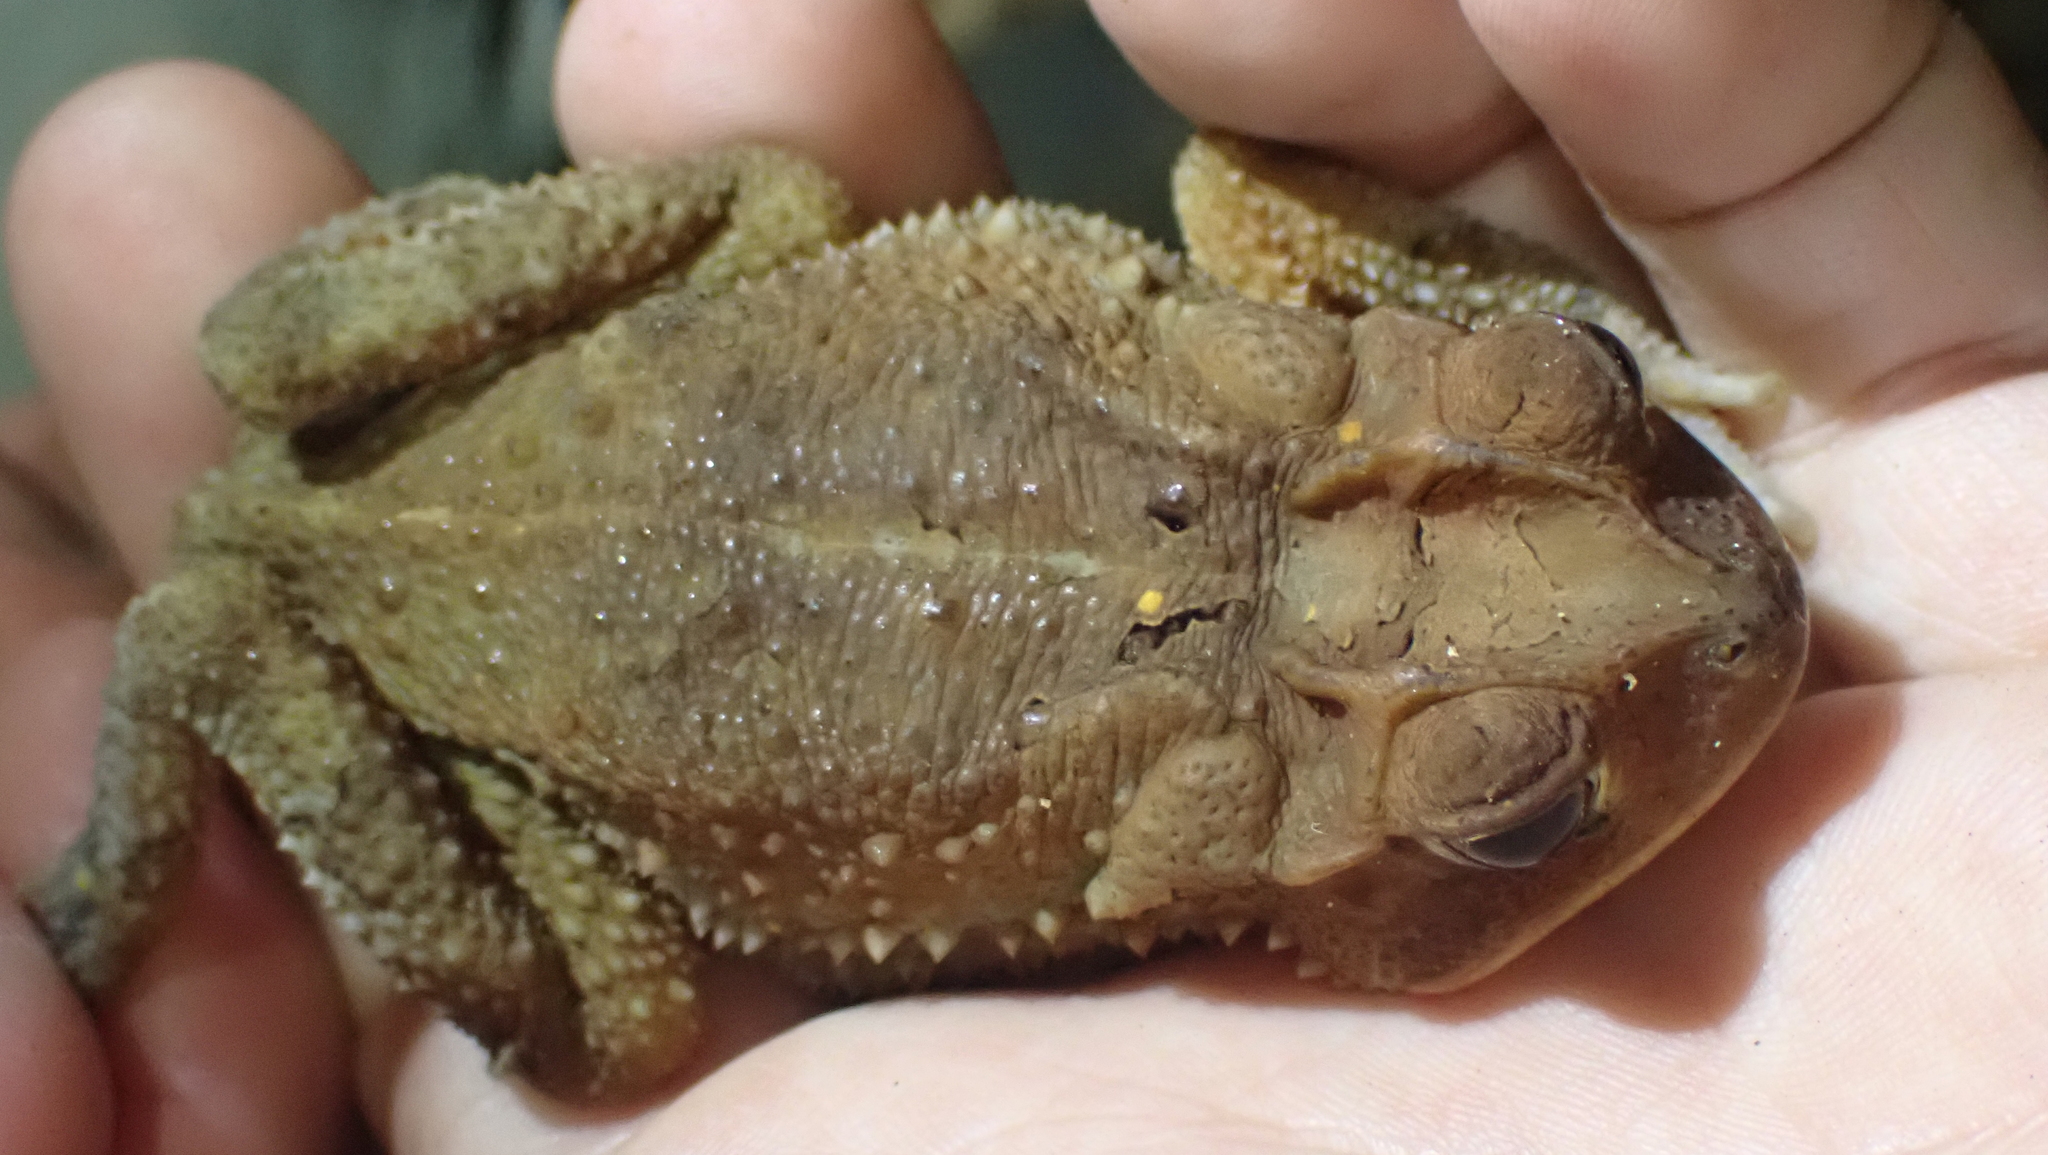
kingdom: Animalia
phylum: Chordata
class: Amphibia
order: Anura
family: Bufonidae
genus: Incilius
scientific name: Incilius valliceps
